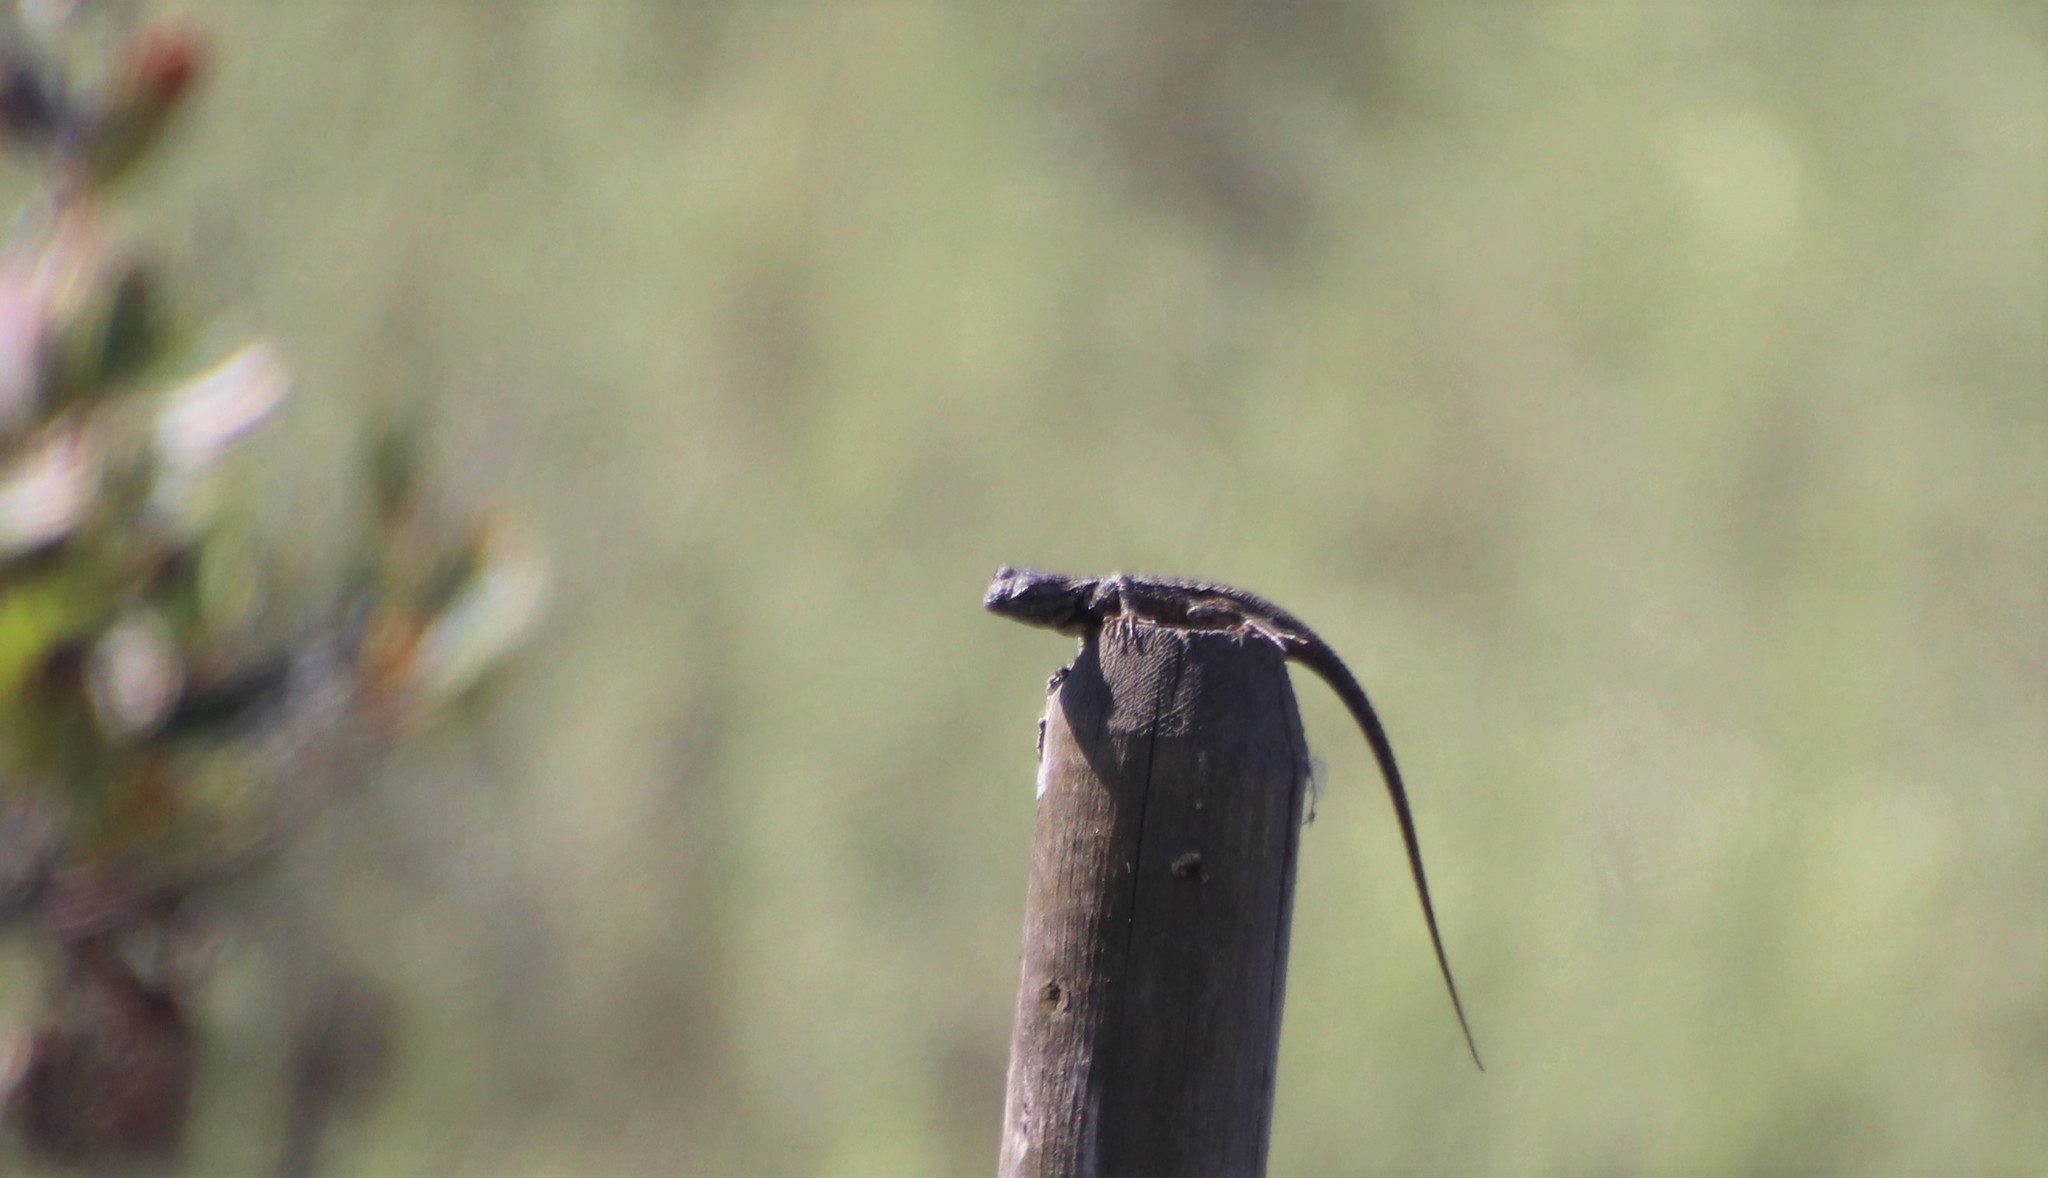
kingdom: Animalia
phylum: Chordata
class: Squamata
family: Phrynosomatidae
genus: Sceloporus
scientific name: Sceloporus occidentalis
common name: Western fence lizard
